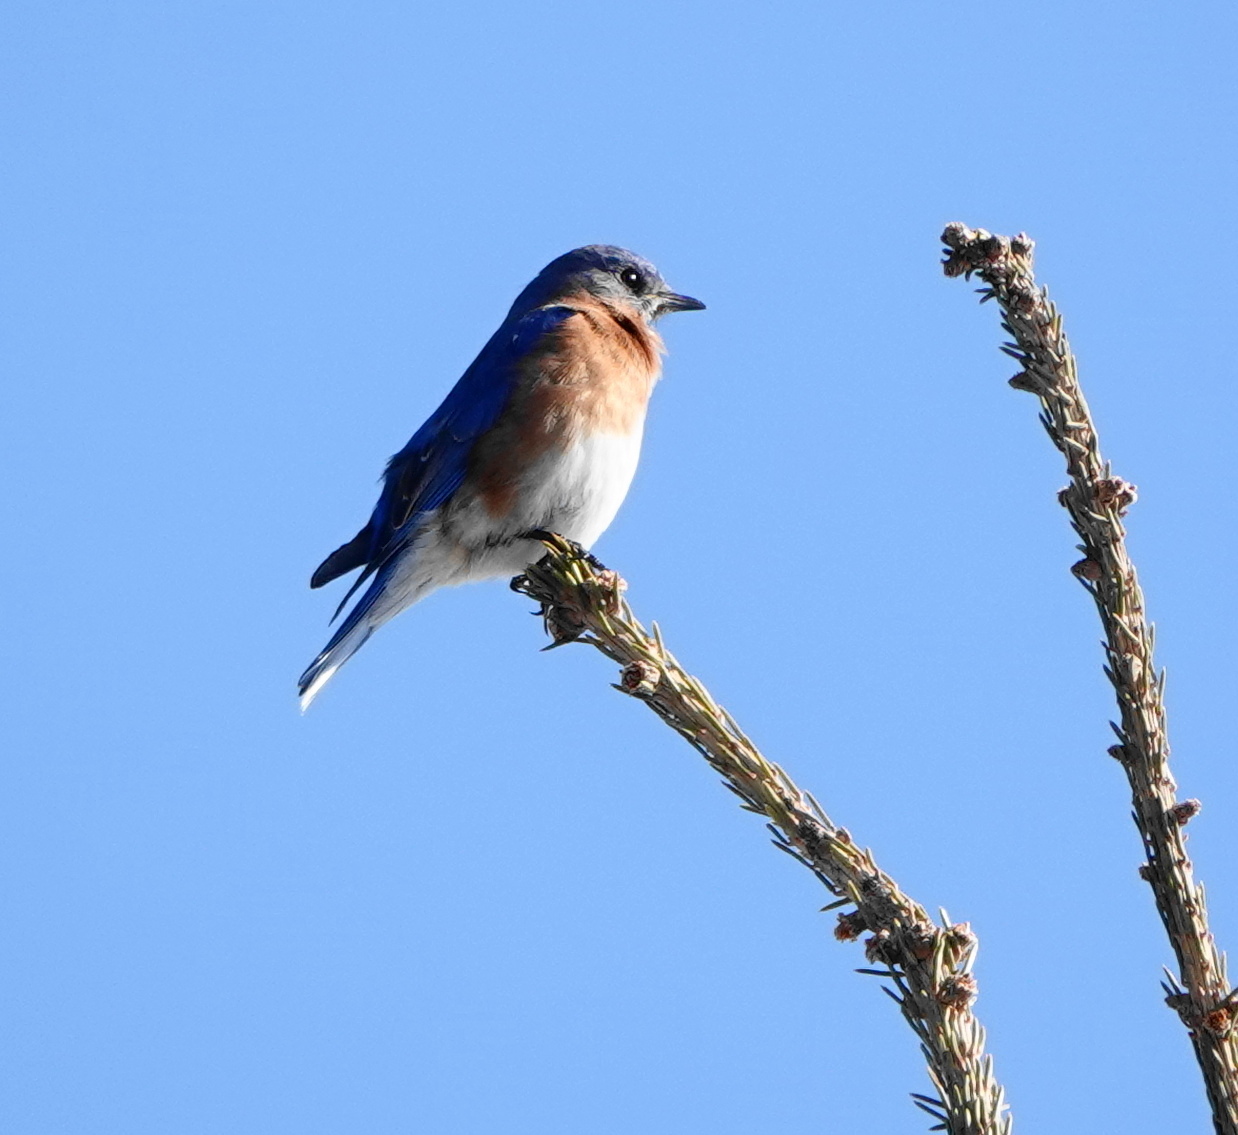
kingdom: Animalia
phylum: Chordata
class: Aves
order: Passeriformes
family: Turdidae
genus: Sialia
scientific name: Sialia sialis
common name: Eastern bluebird
